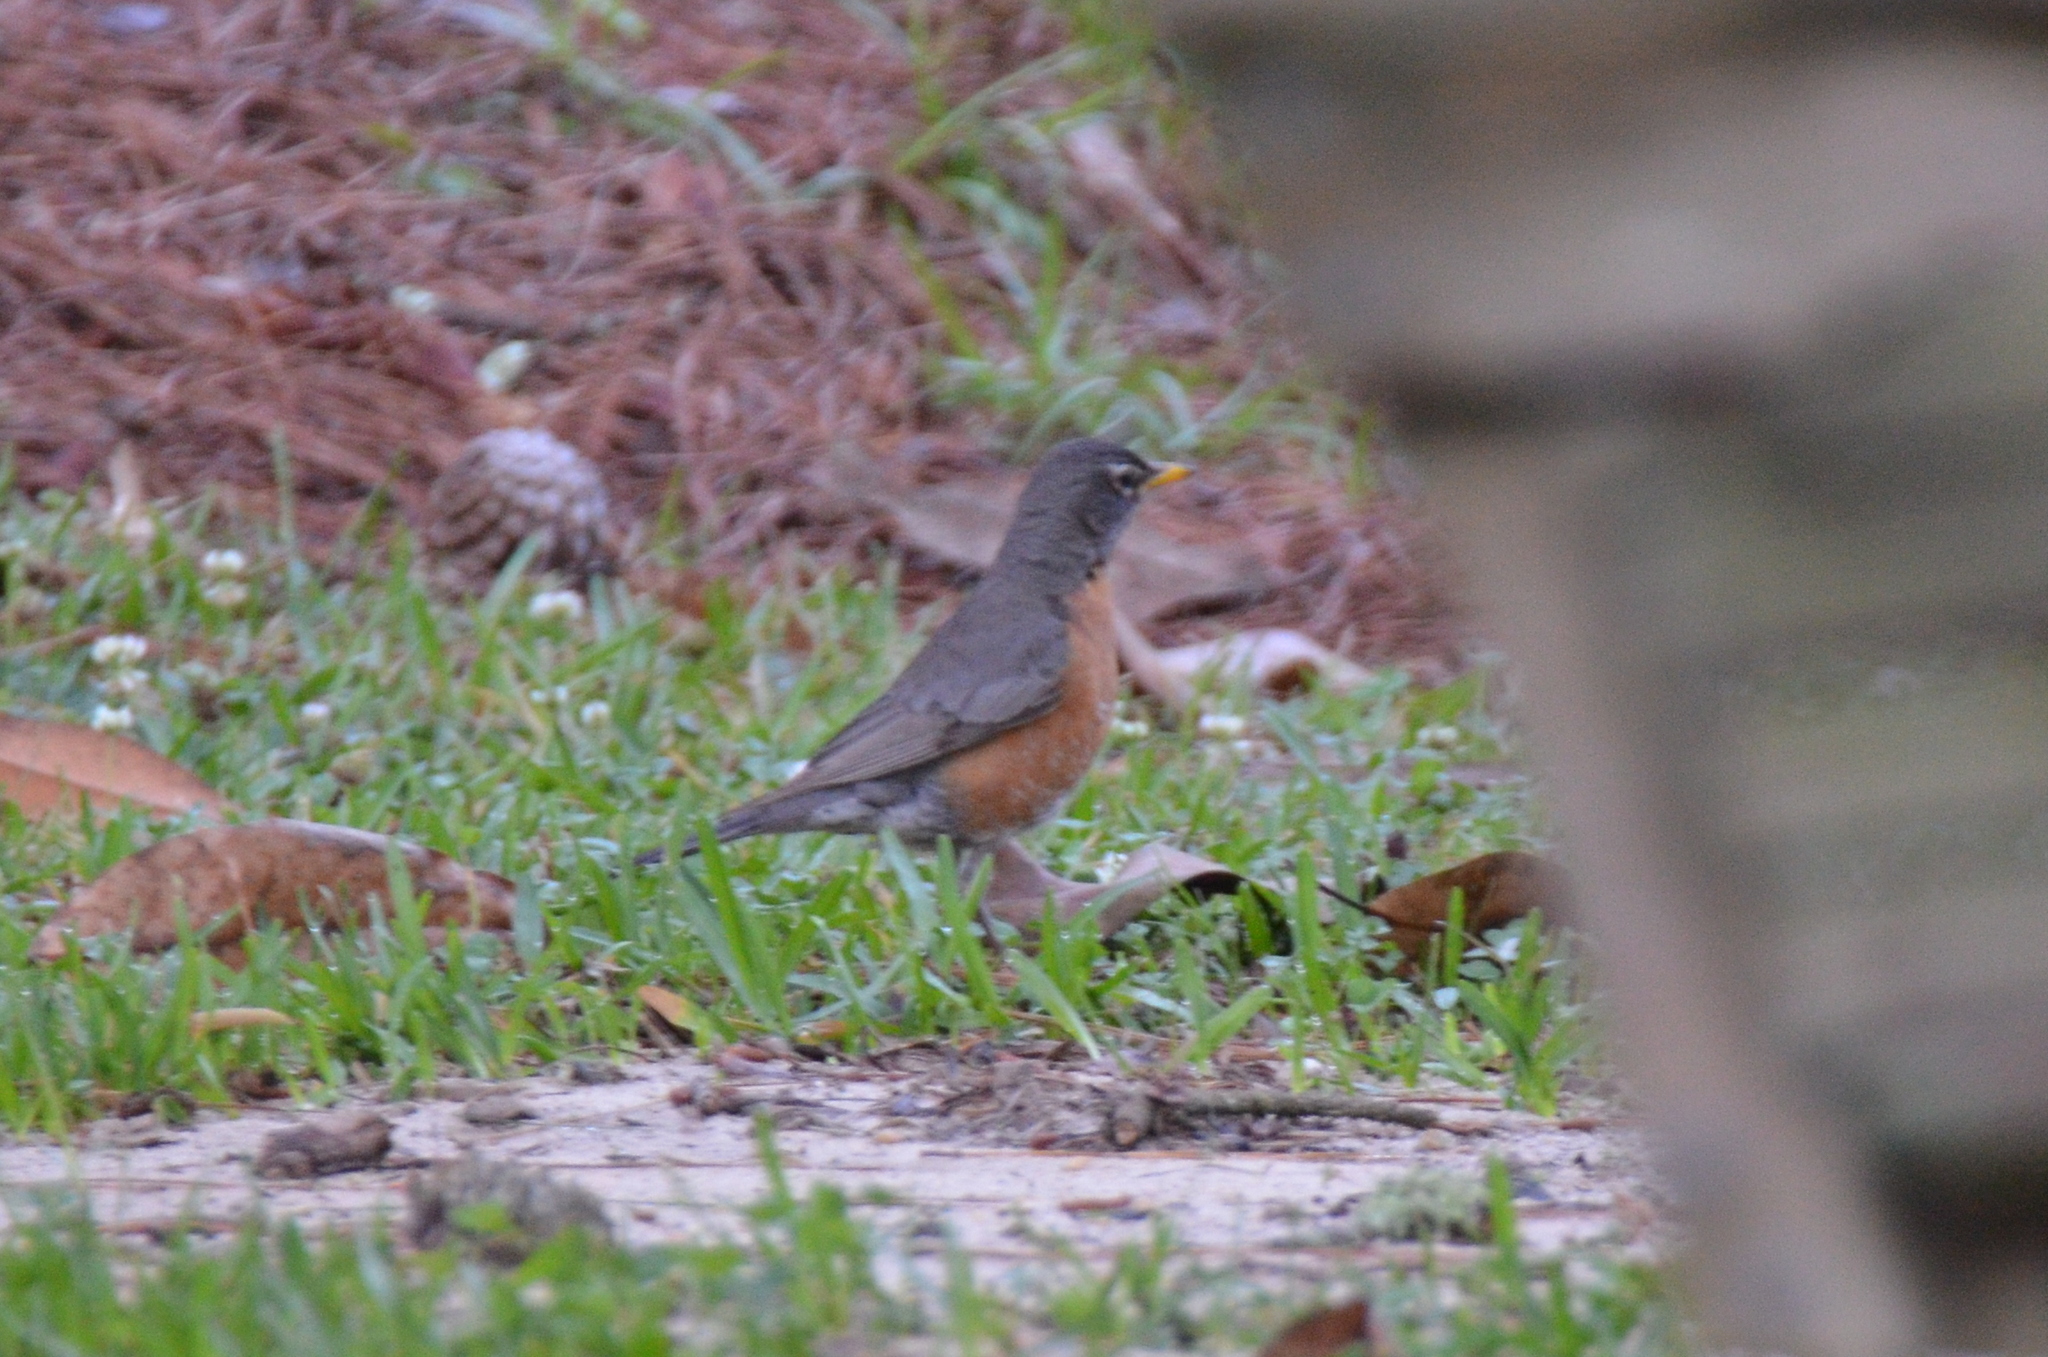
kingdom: Animalia
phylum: Chordata
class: Aves
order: Passeriformes
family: Turdidae
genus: Turdus
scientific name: Turdus migratorius
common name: American robin
